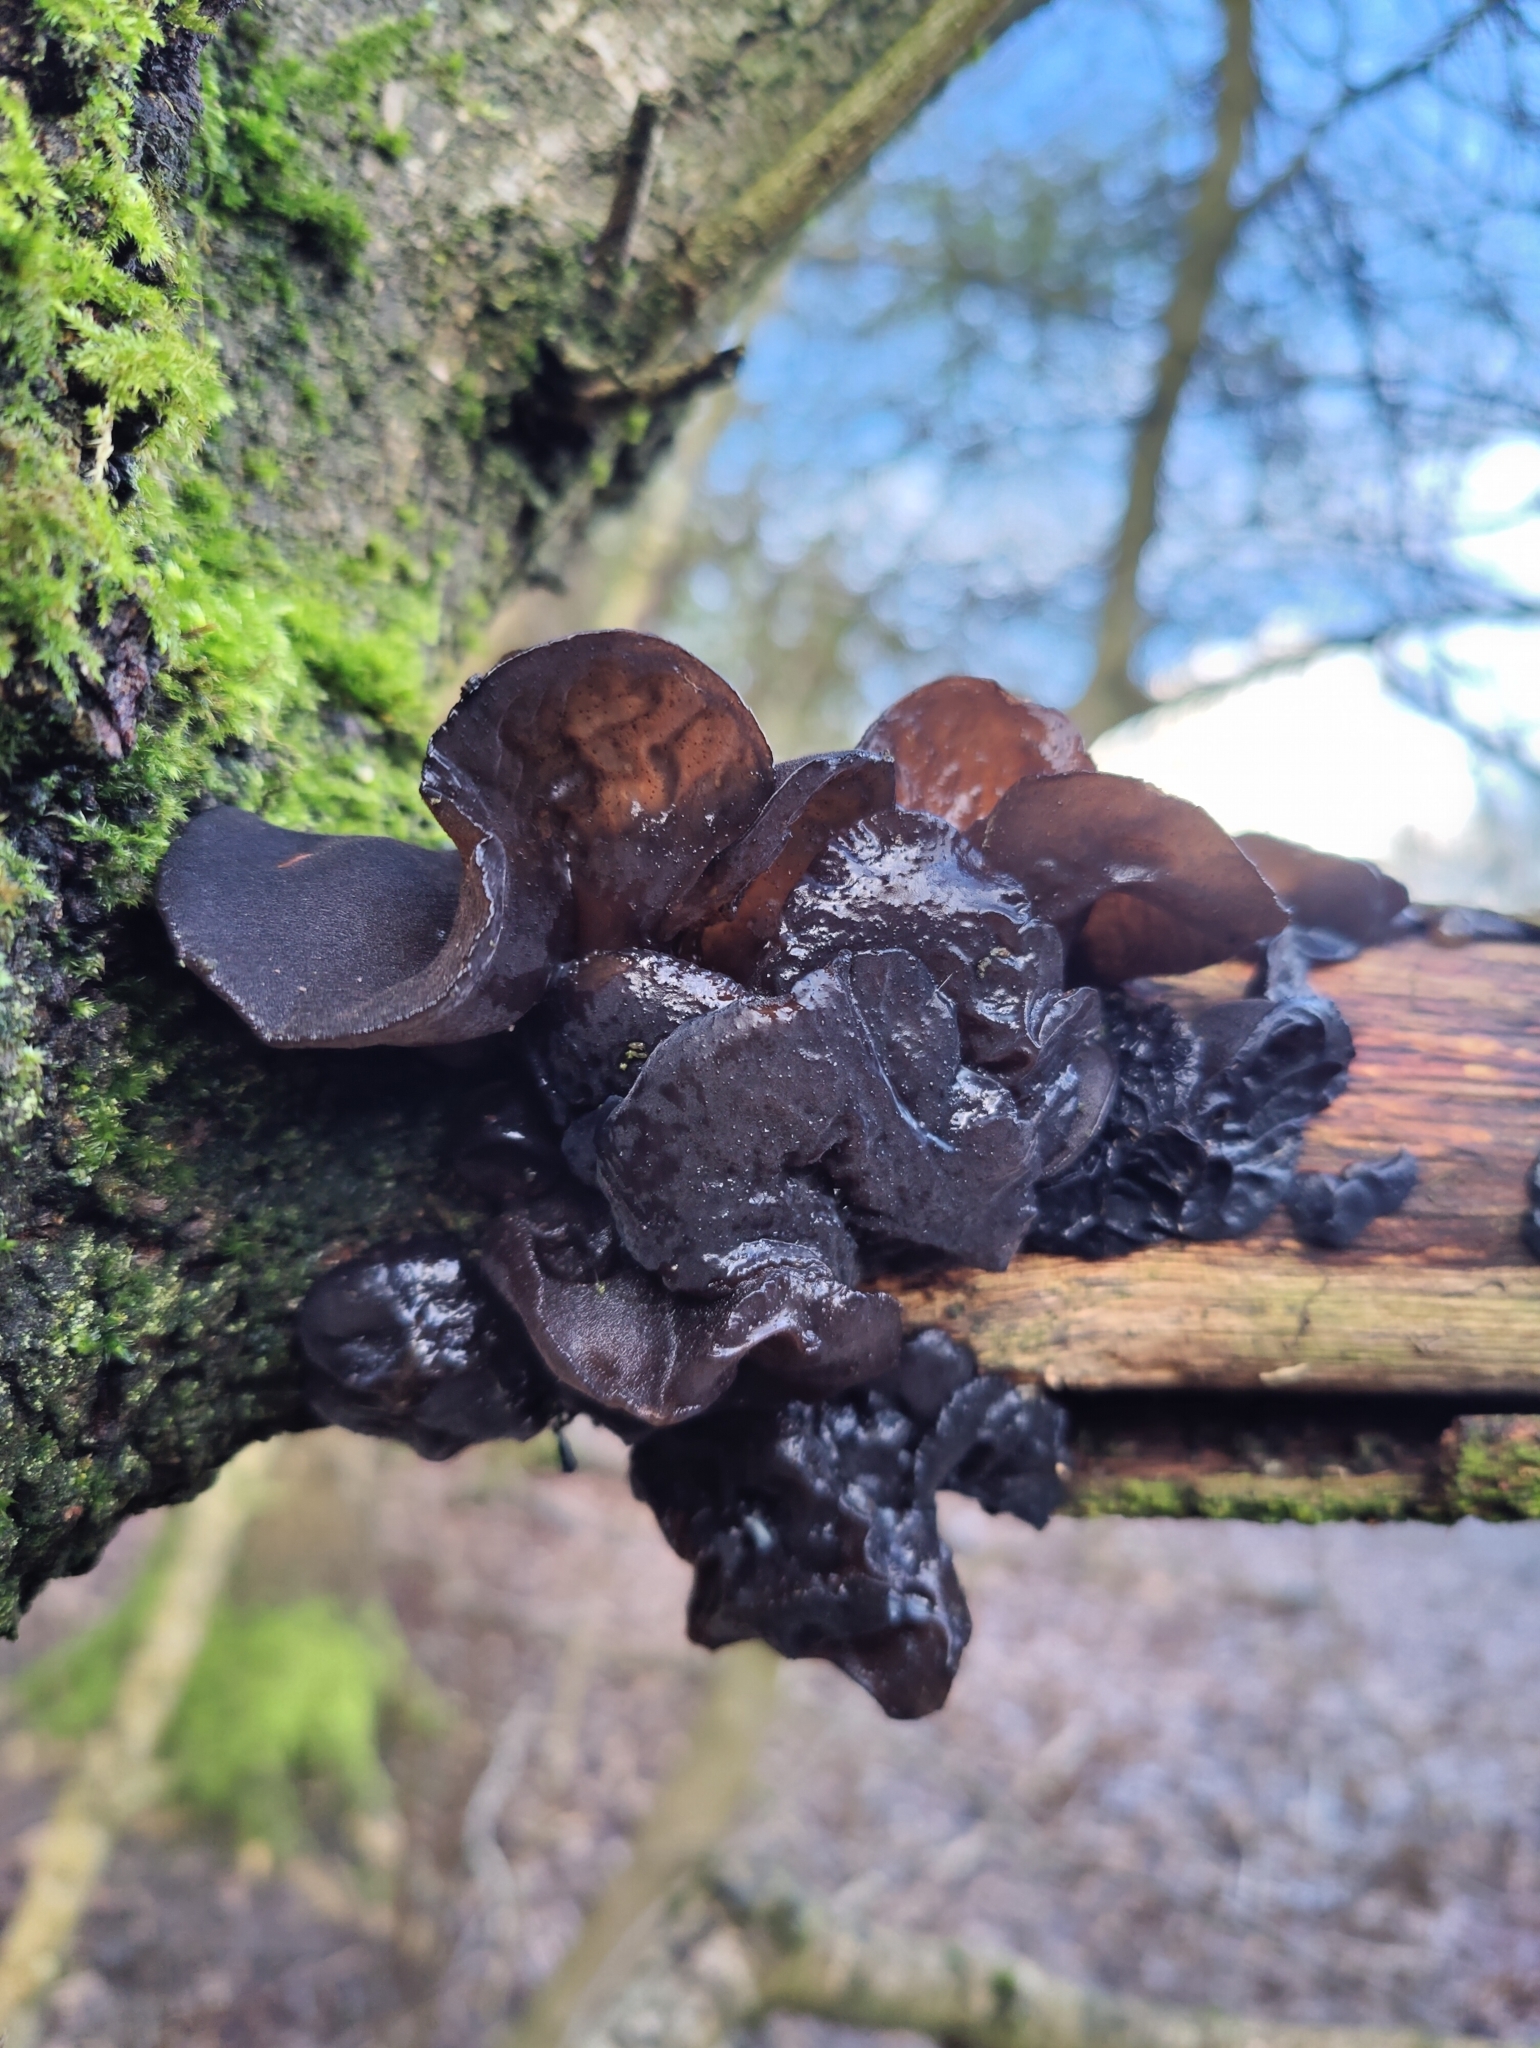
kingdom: Fungi
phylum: Basidiomycota
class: Agaricomycetes
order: Auriculariales
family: Auriculariaceae
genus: Exidia
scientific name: Exidia glandulosa
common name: Witches' butter
